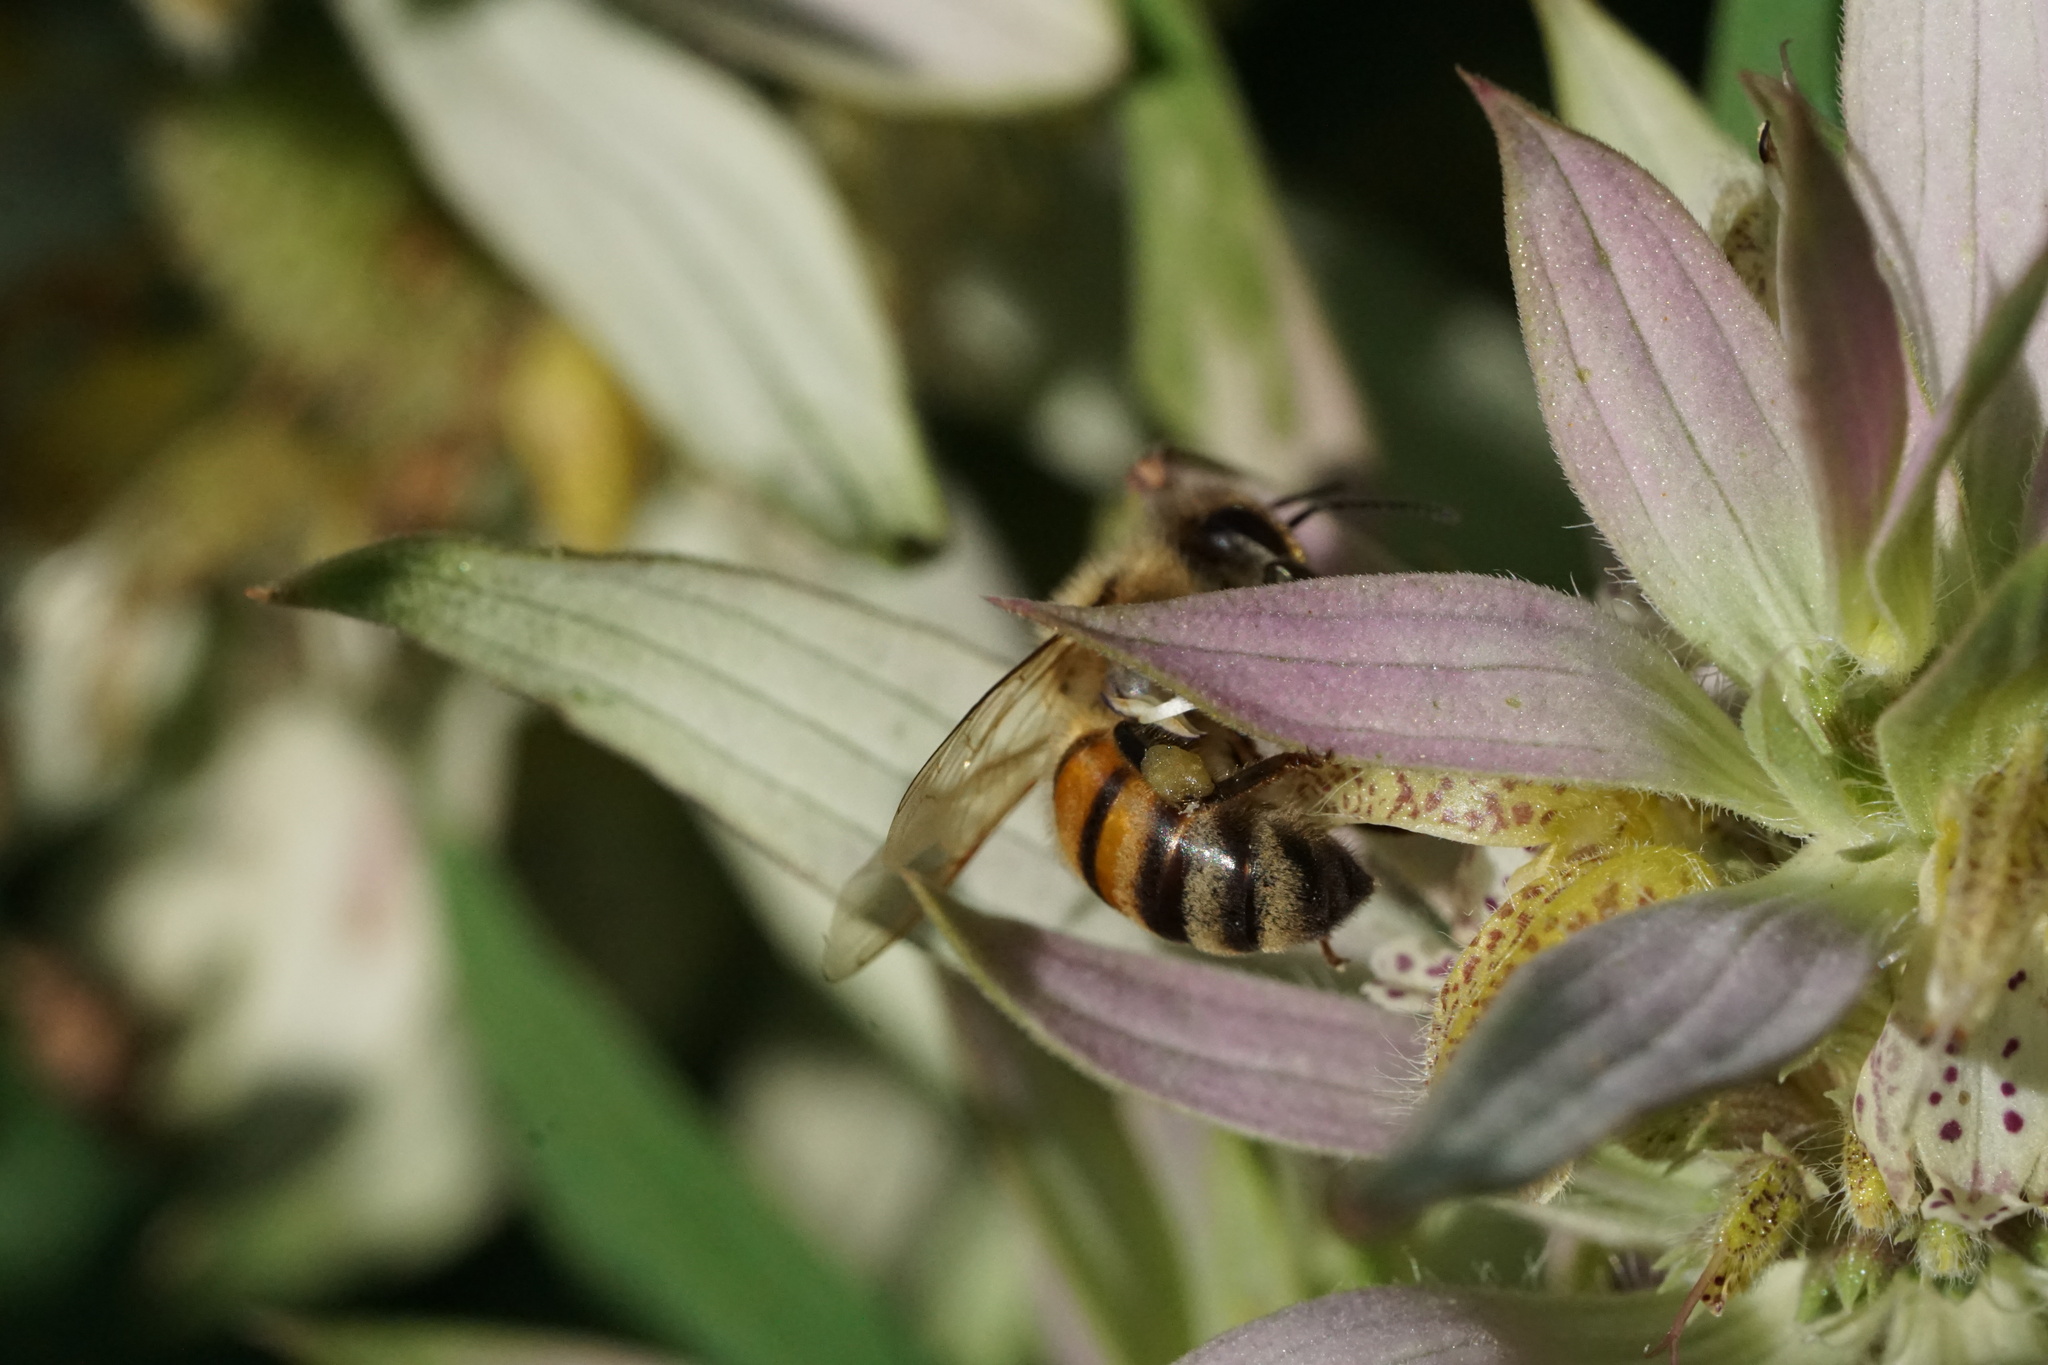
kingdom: Animalia
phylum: Arthropoda
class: Insecta
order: Hymenoptera
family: Apidae
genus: Apis
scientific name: Apis mellifera
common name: Honey bee
